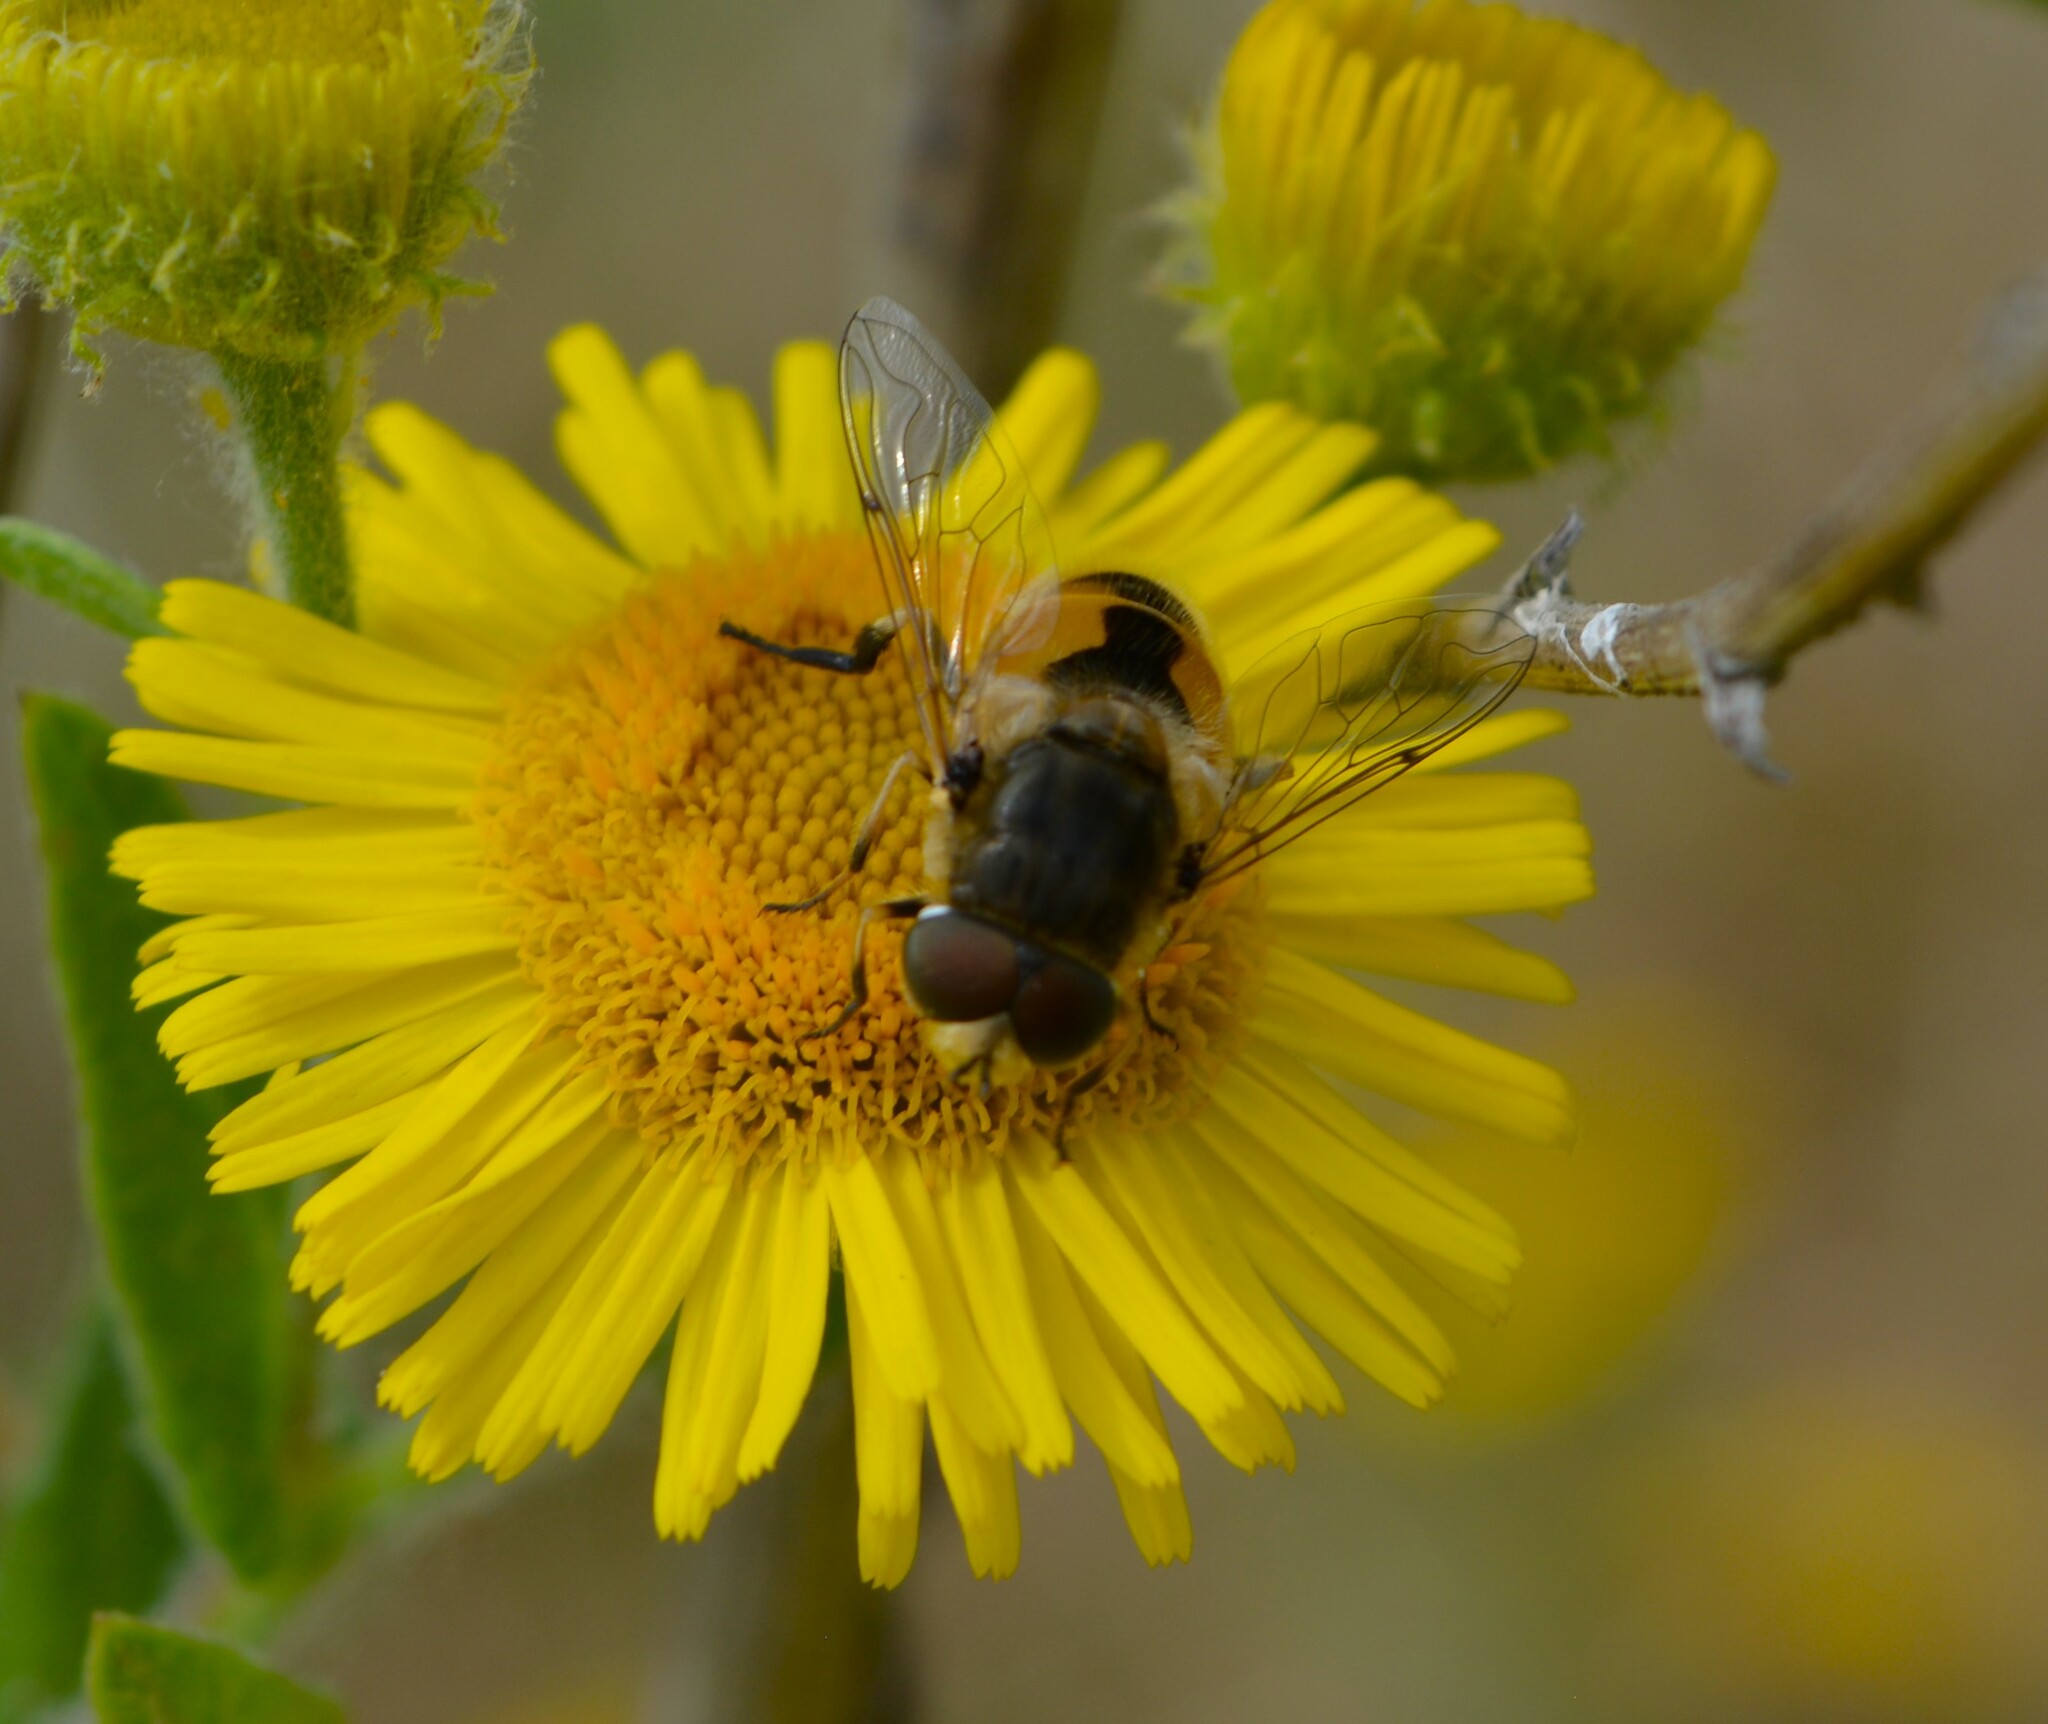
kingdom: Animalia
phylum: Arthropoda
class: Insecta
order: Diptera
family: Syrphidae
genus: Eristalis
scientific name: Eristalis arbustorum
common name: Hover fly
